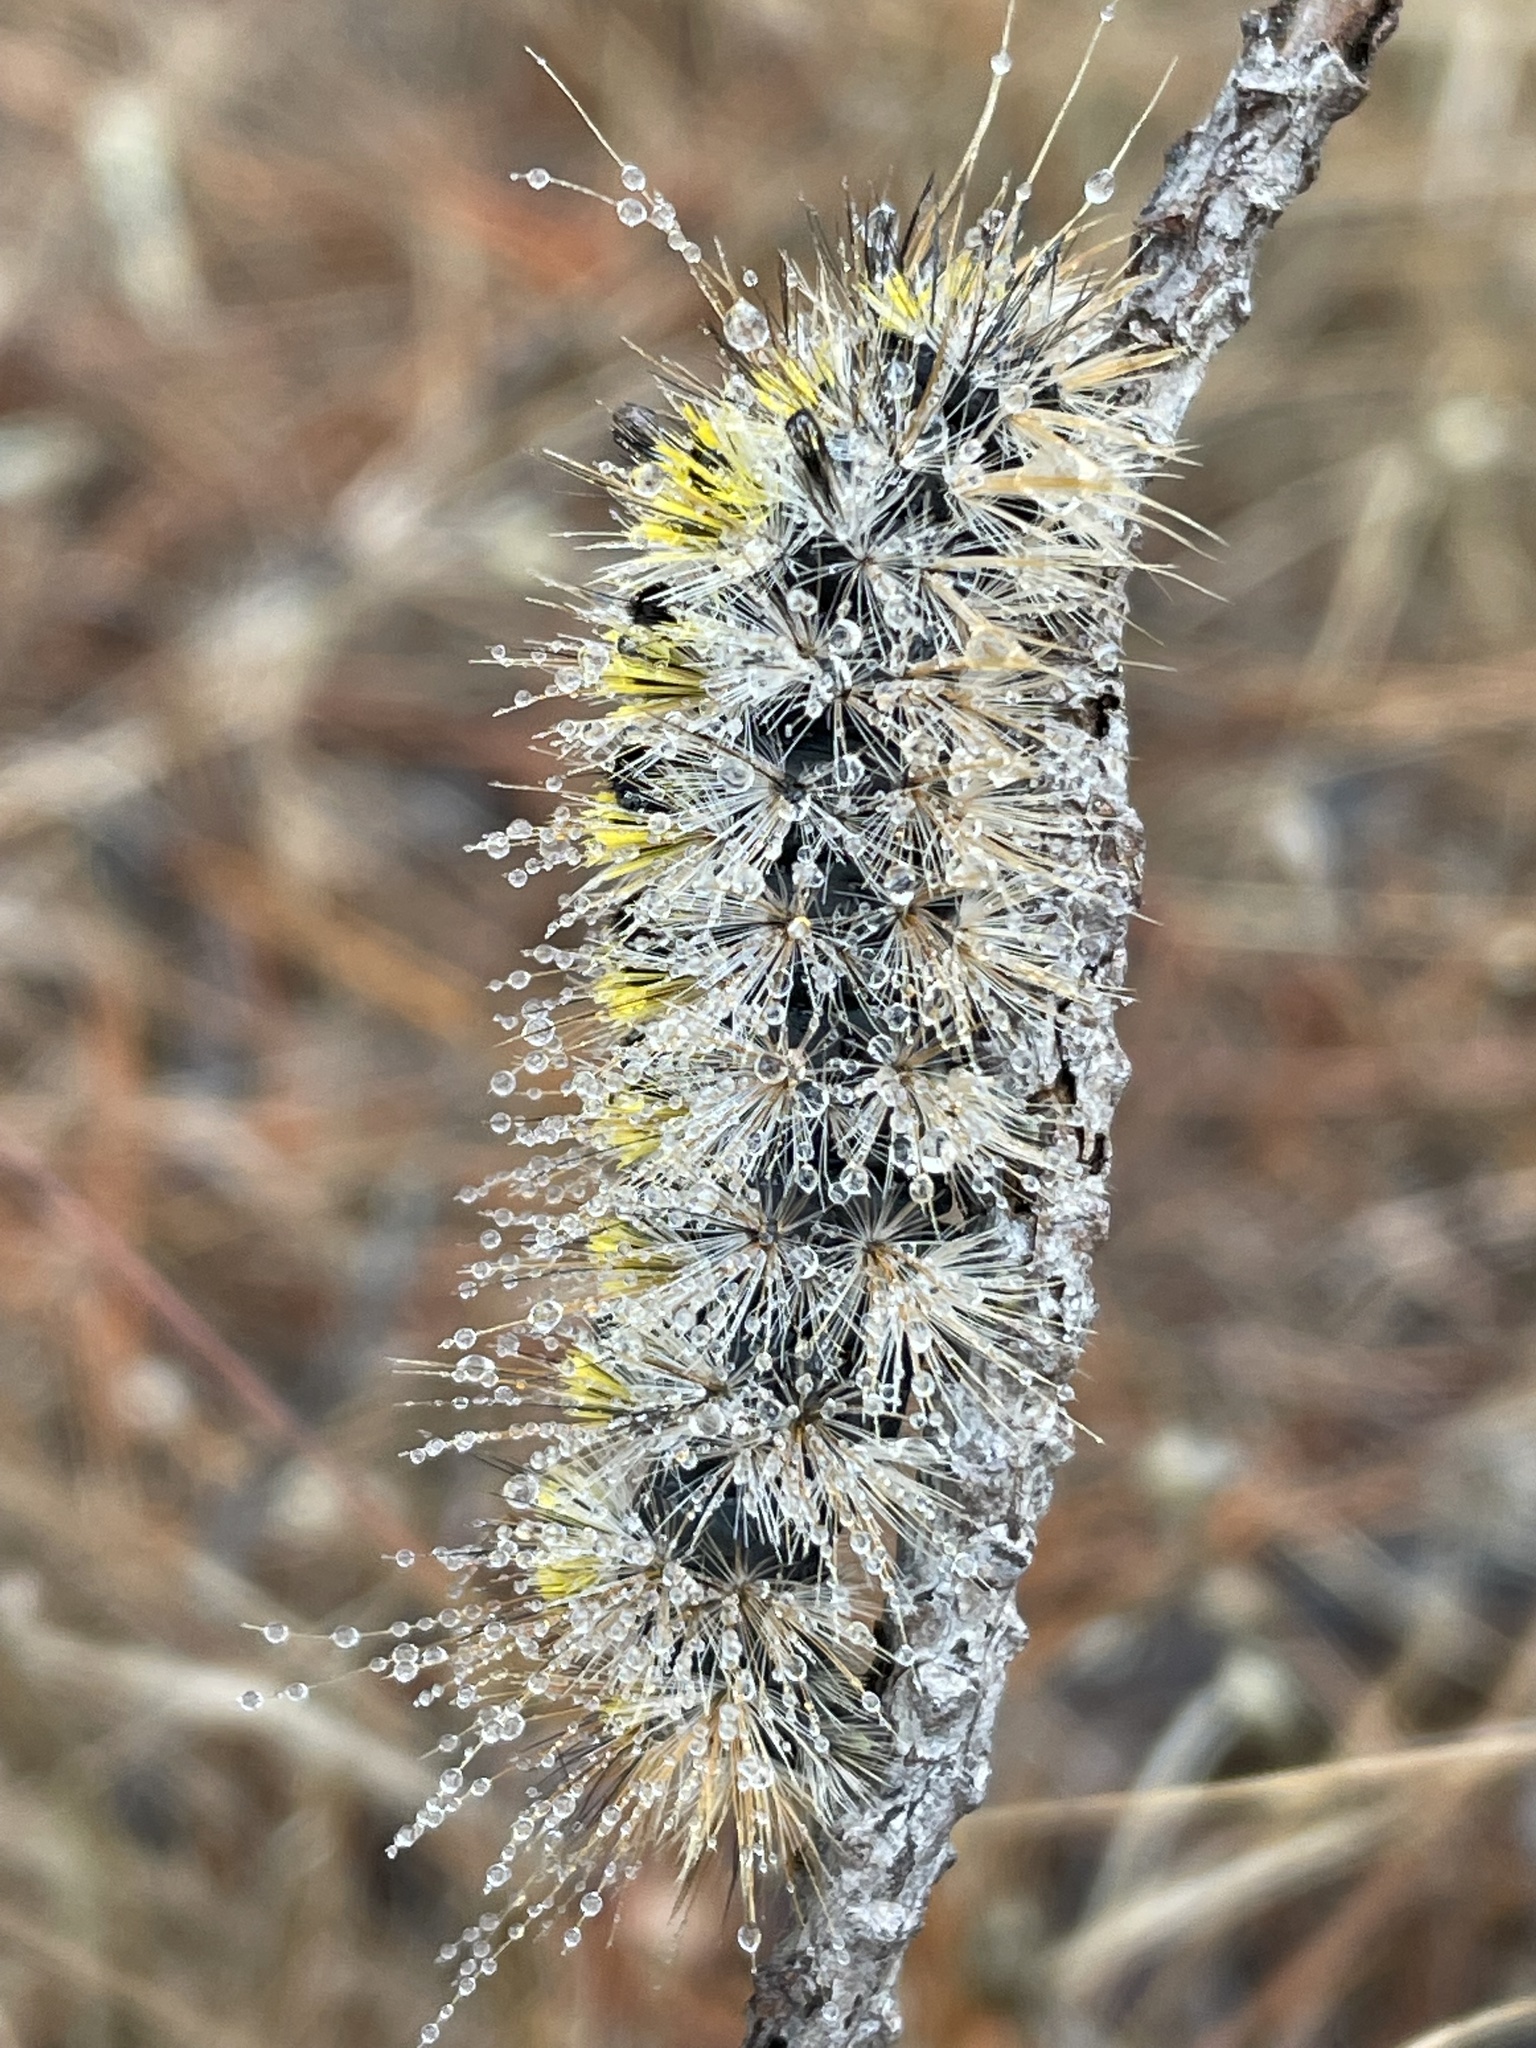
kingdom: Animalia
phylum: Arthropoda
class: Insecta
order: Lepidoptera
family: Erebidae
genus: Lophocampa
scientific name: Lophocampa sobrina
